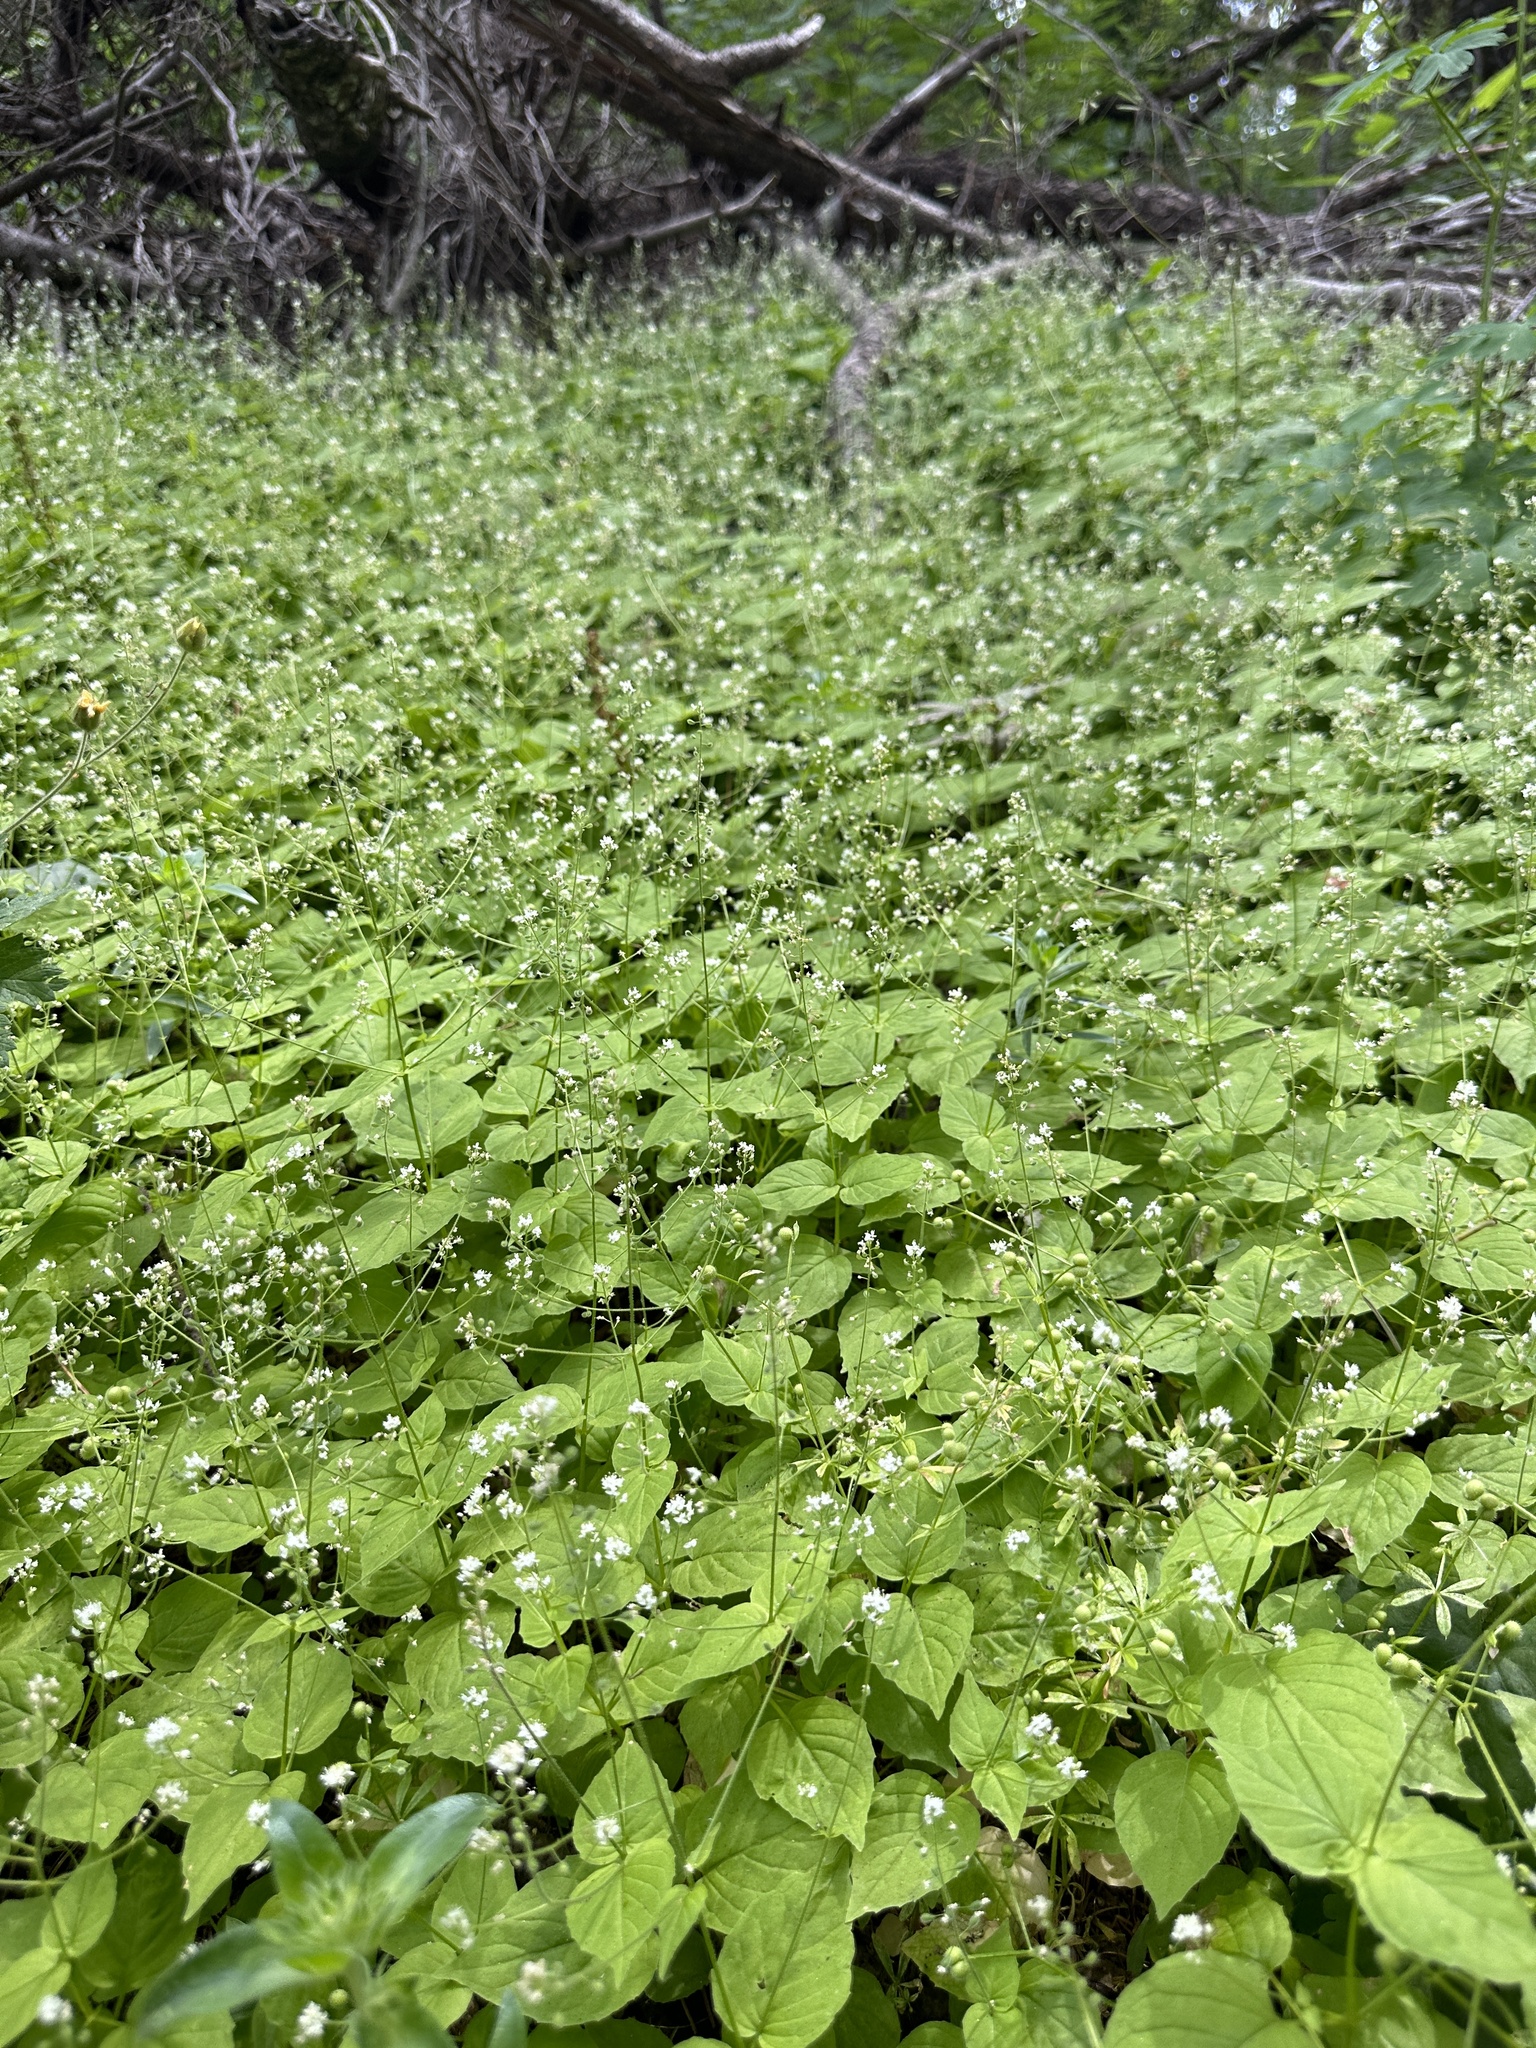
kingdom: Plantae
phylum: Tracheophyta
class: Magnoliopsida
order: Myrtales
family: Onagraceae
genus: Circaea
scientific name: Circaea alpina
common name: Alpine enchanter's-nightshade
